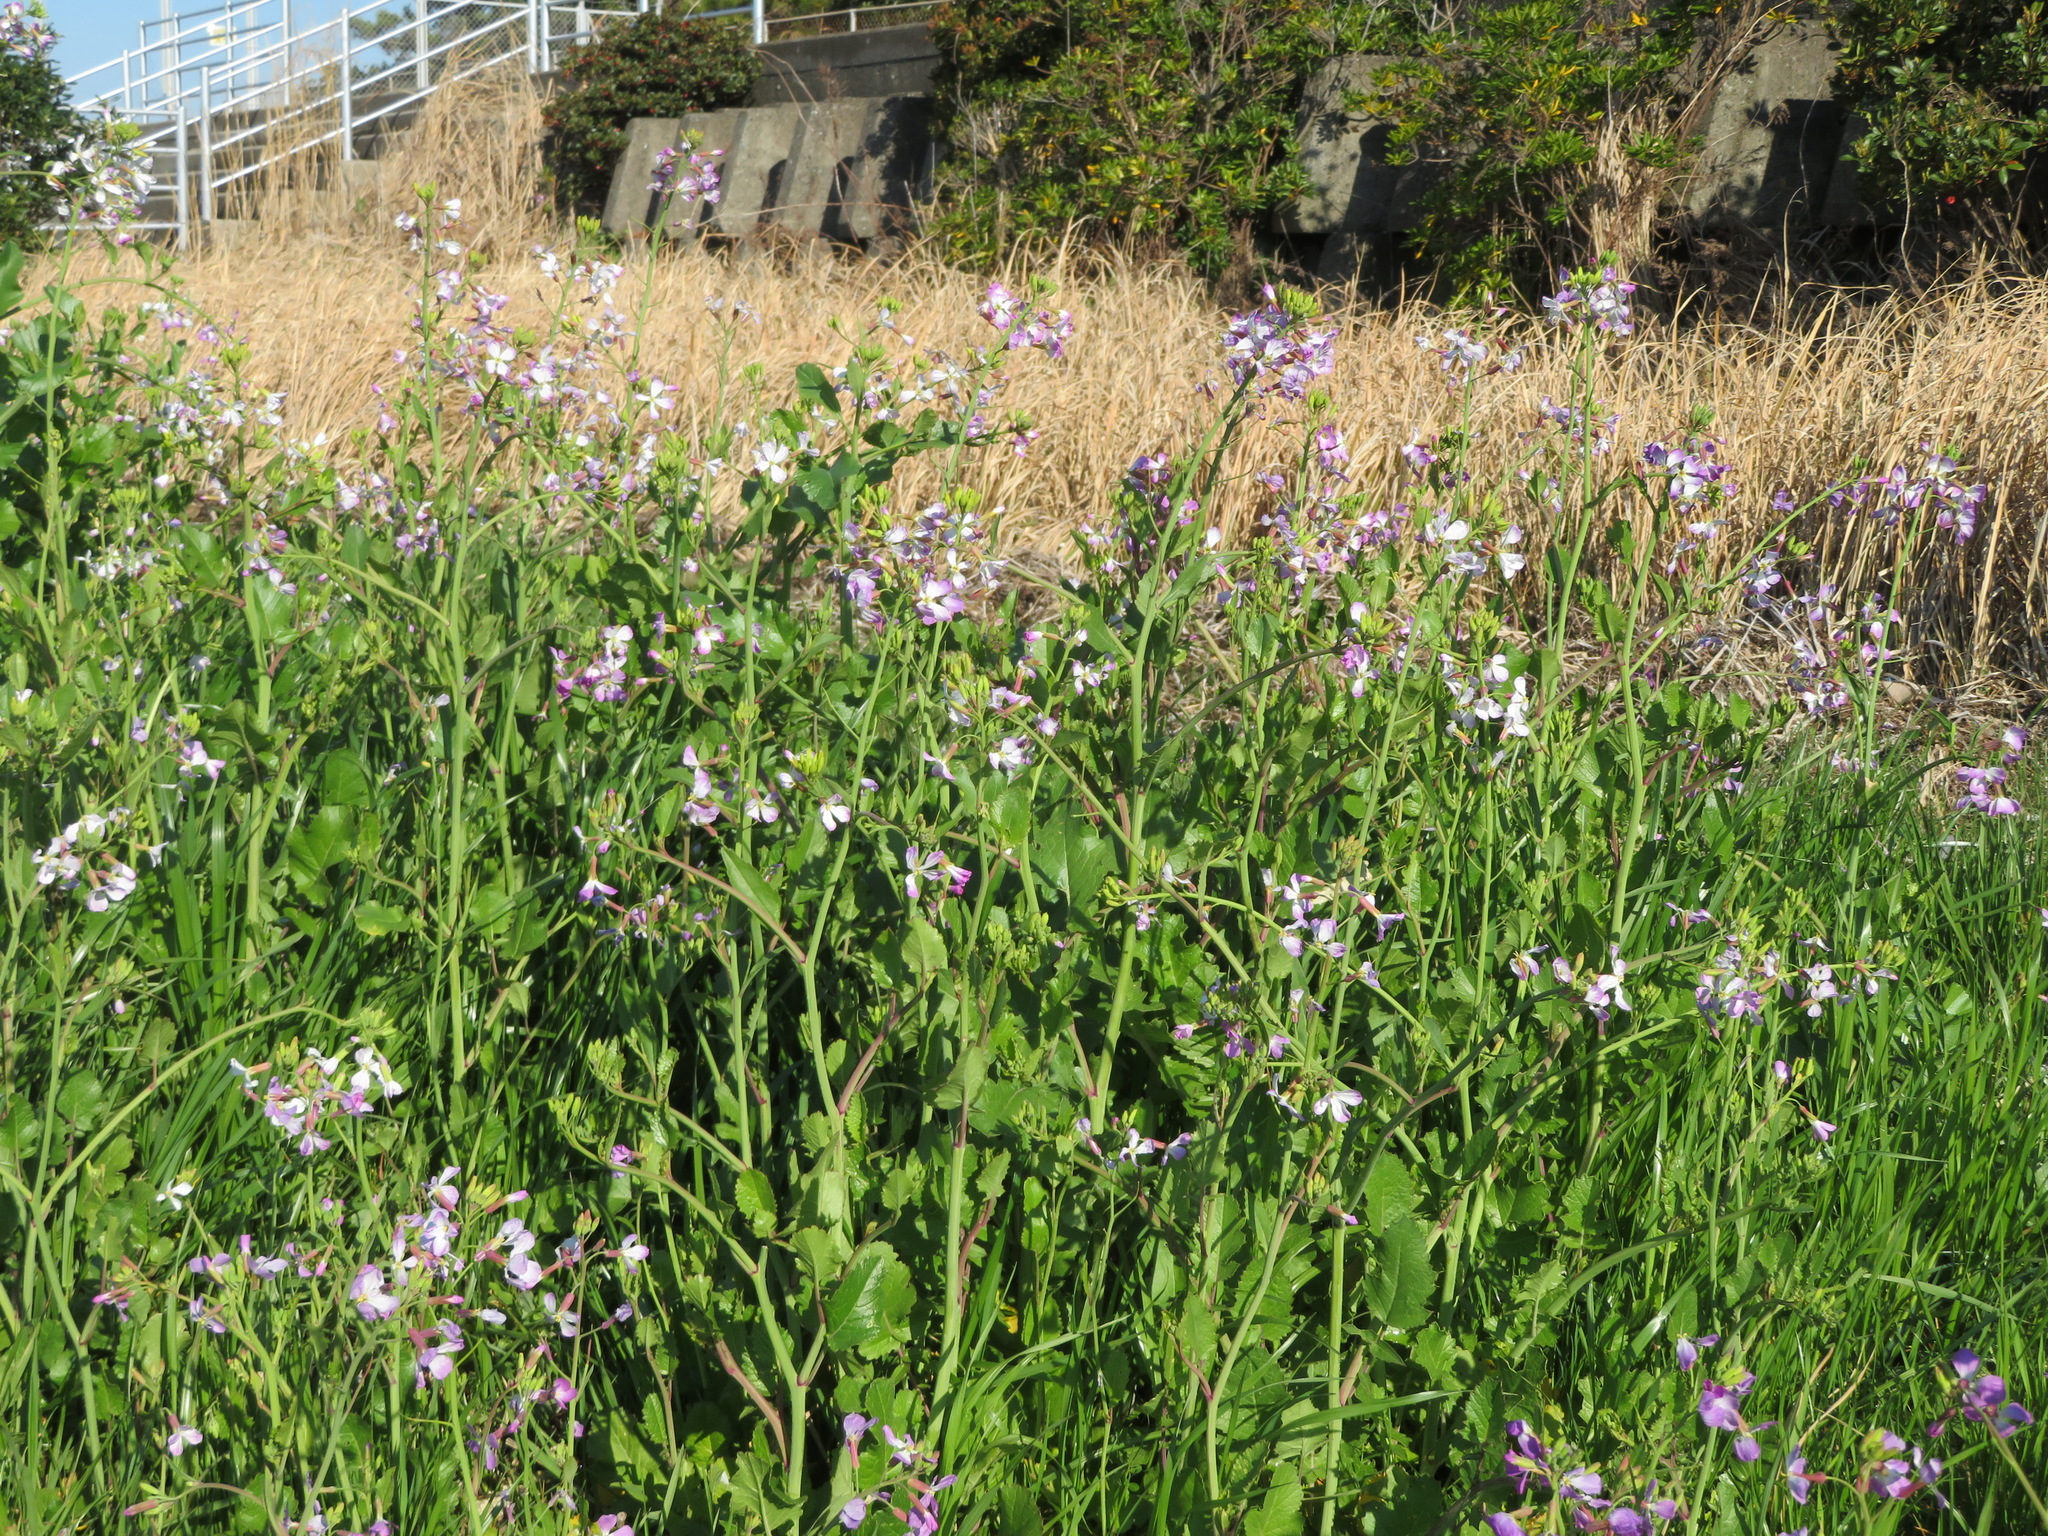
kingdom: Plantae
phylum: Tracheophyta
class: Magnoliopsida
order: Brassicales
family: Brassicaceae
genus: Raphanus
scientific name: Raphanus sativus
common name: Cultivated radish
